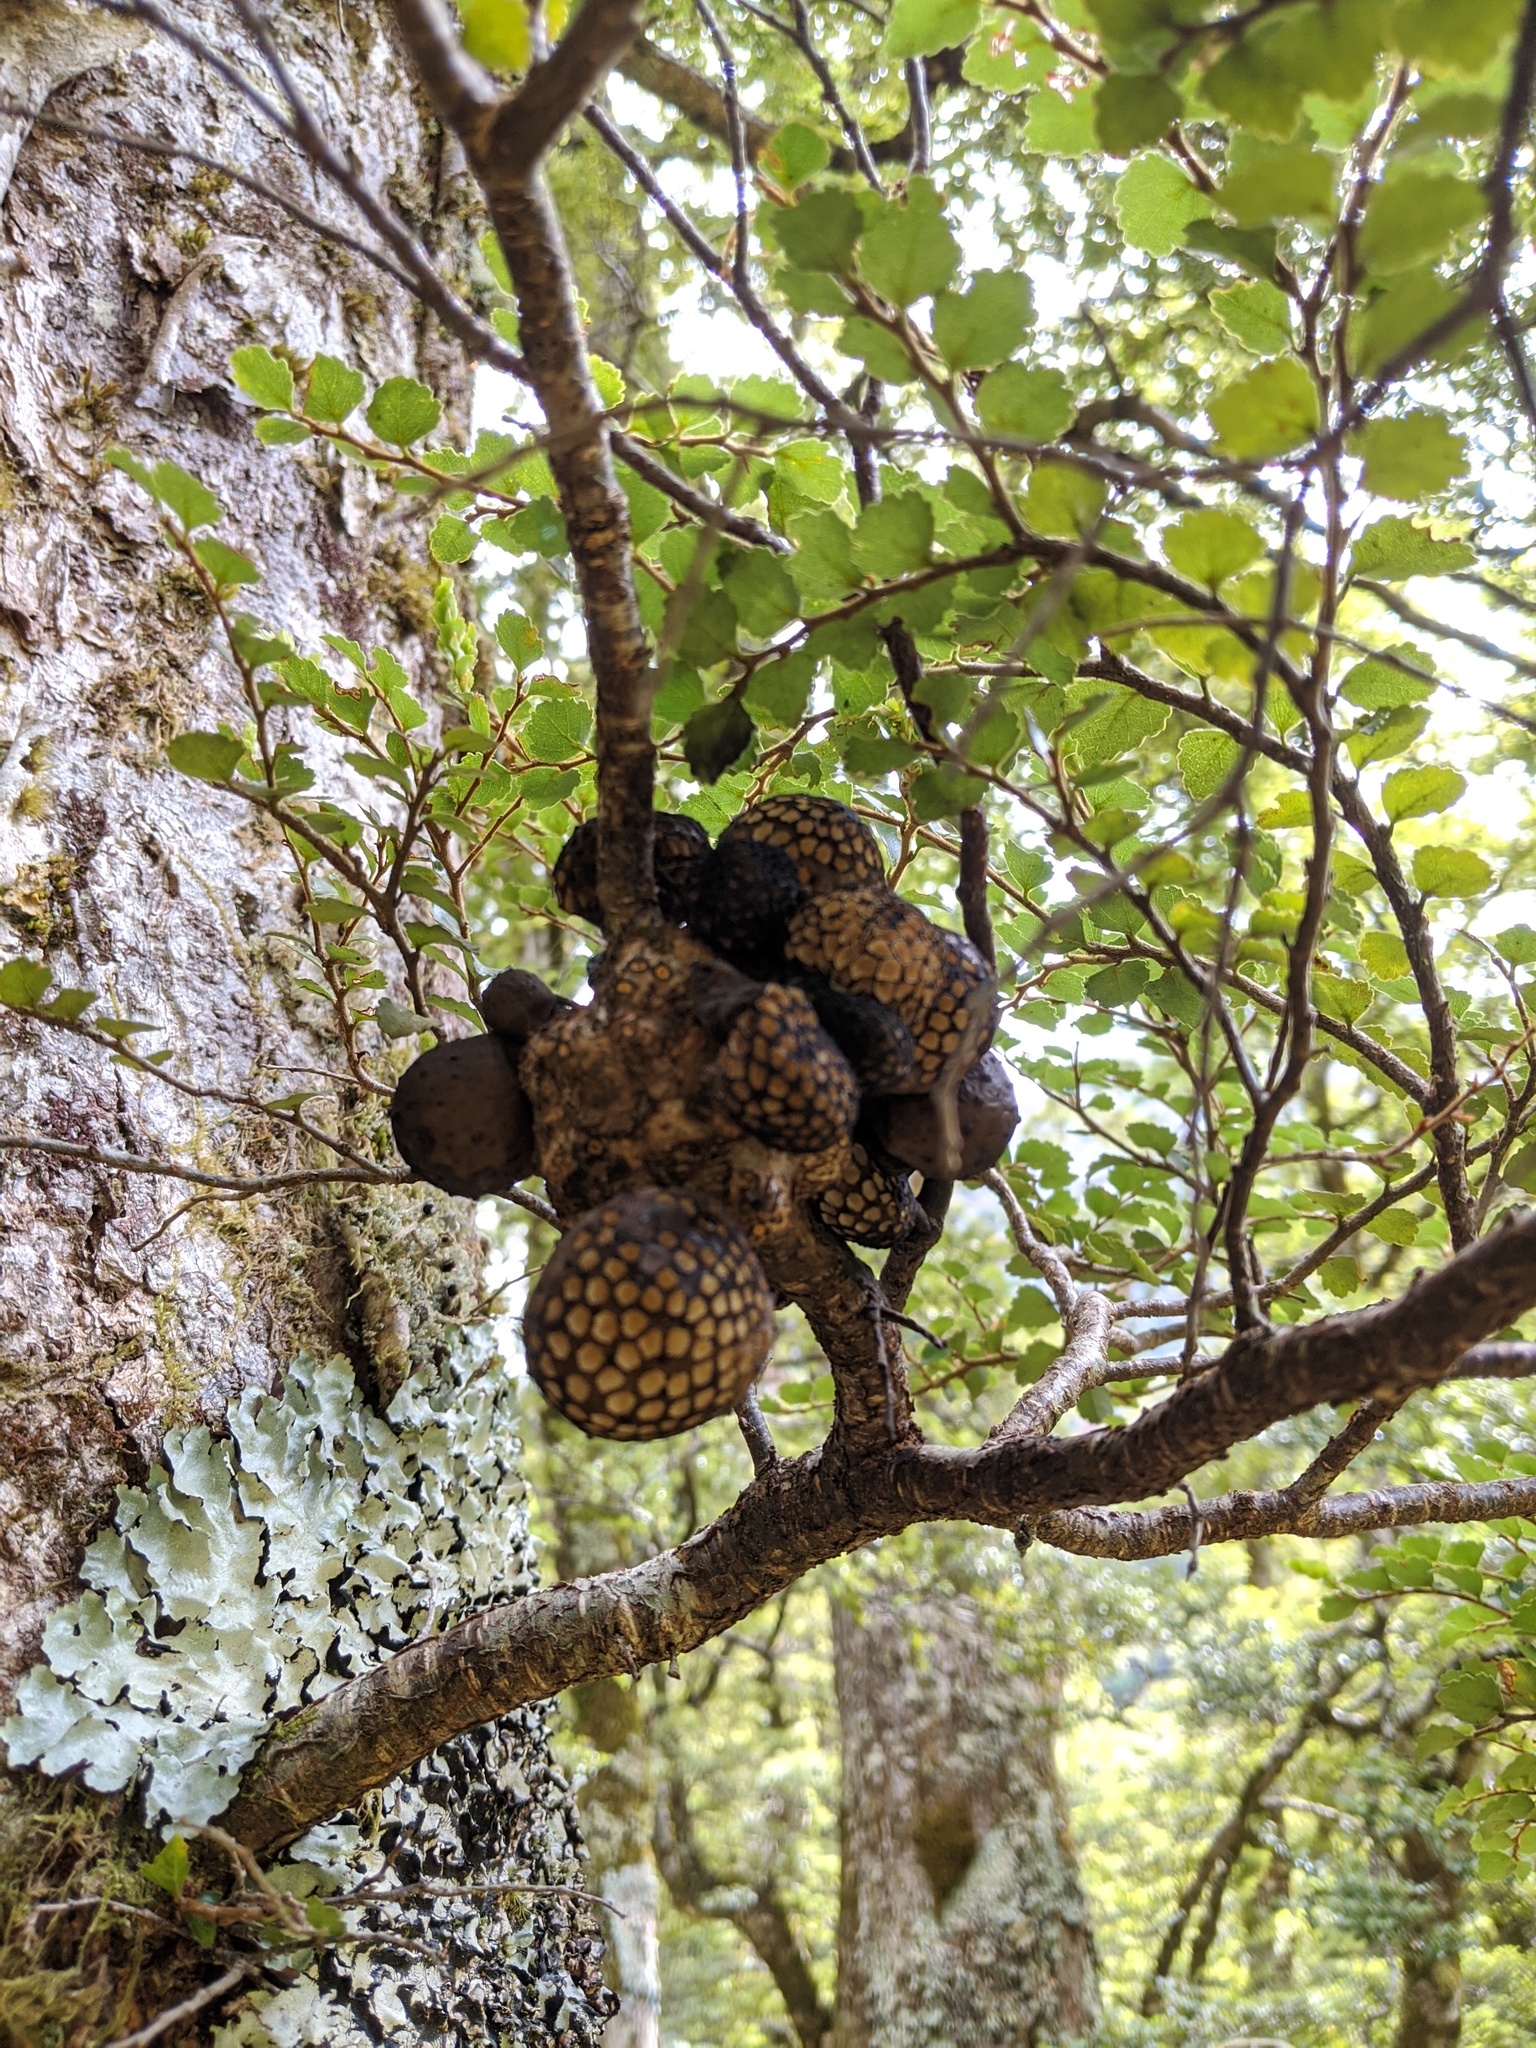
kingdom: Fungi
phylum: Ascomycota
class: Leotiomycetes
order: Cyttariales
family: Cyttariaceae
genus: Cyttaria
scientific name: Cyttaria nigra
